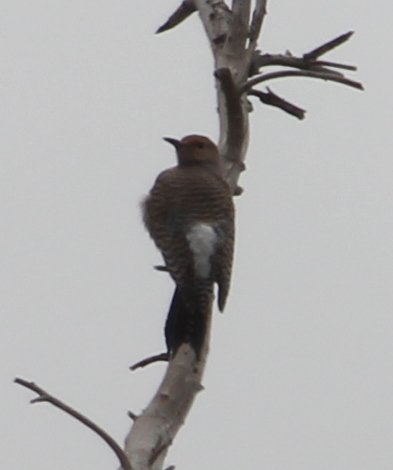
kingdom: Animalia
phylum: Chordata
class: Aves
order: Piciformes
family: Picidae
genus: Colaptes
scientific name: Colaptes auratus
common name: Northern flicker
